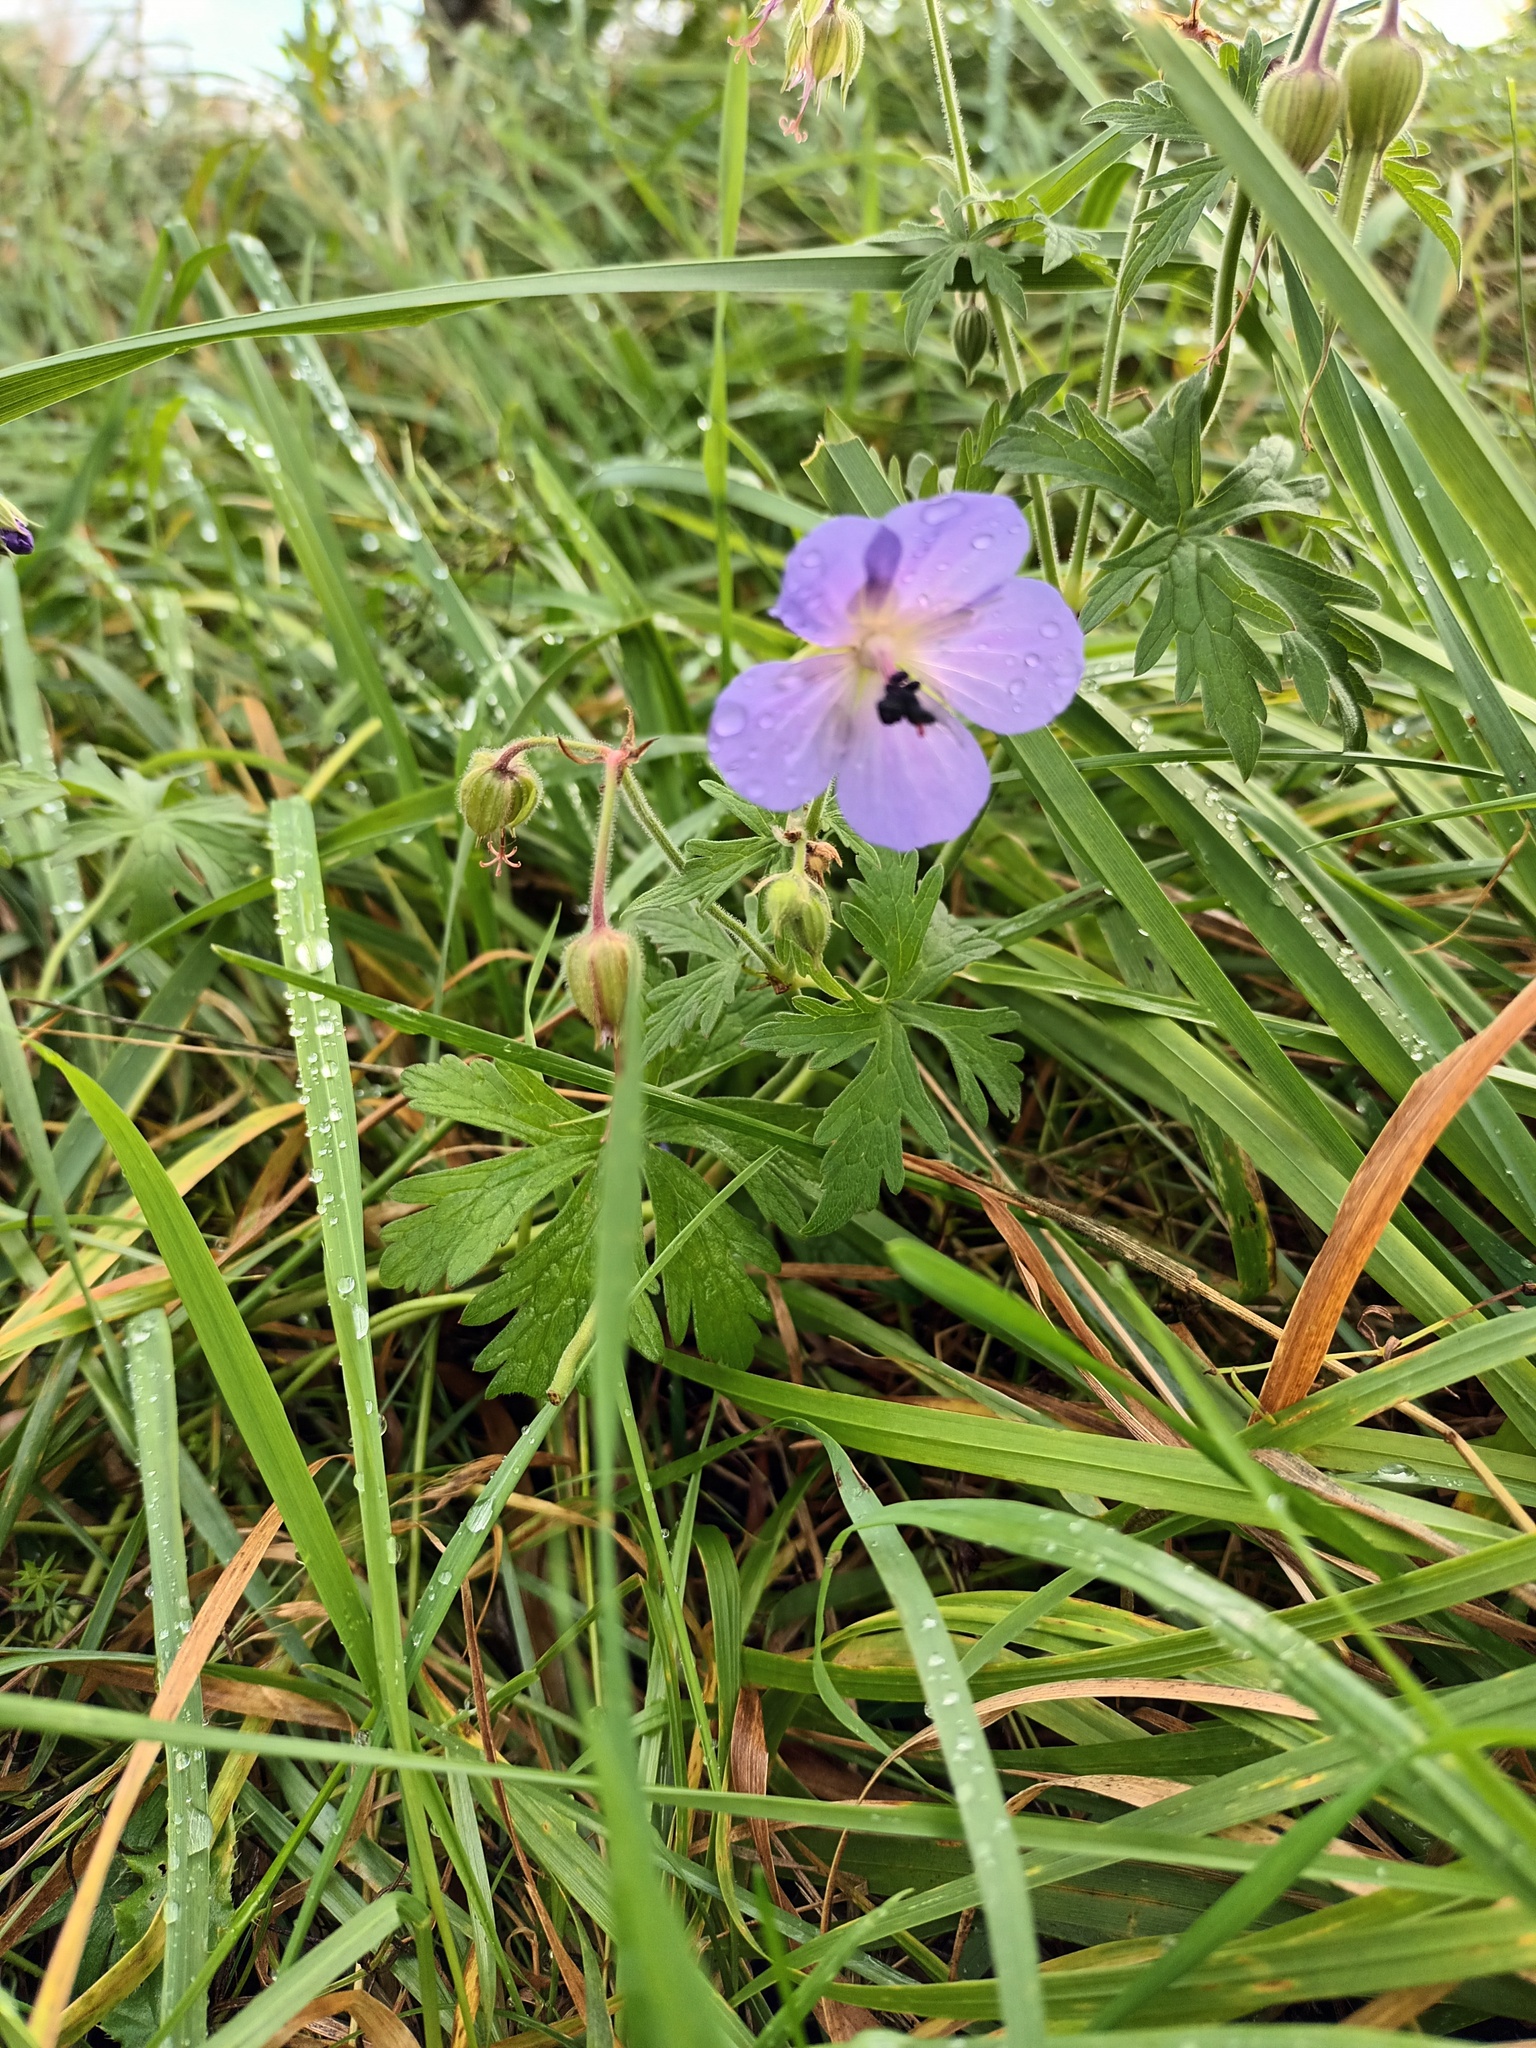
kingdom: Plantae
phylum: Tracheophyta
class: Magnoliopsida
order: Geraniales
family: Geraniaceae
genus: Geranium
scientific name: Geranium pratense
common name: Meadow crane's-bill
